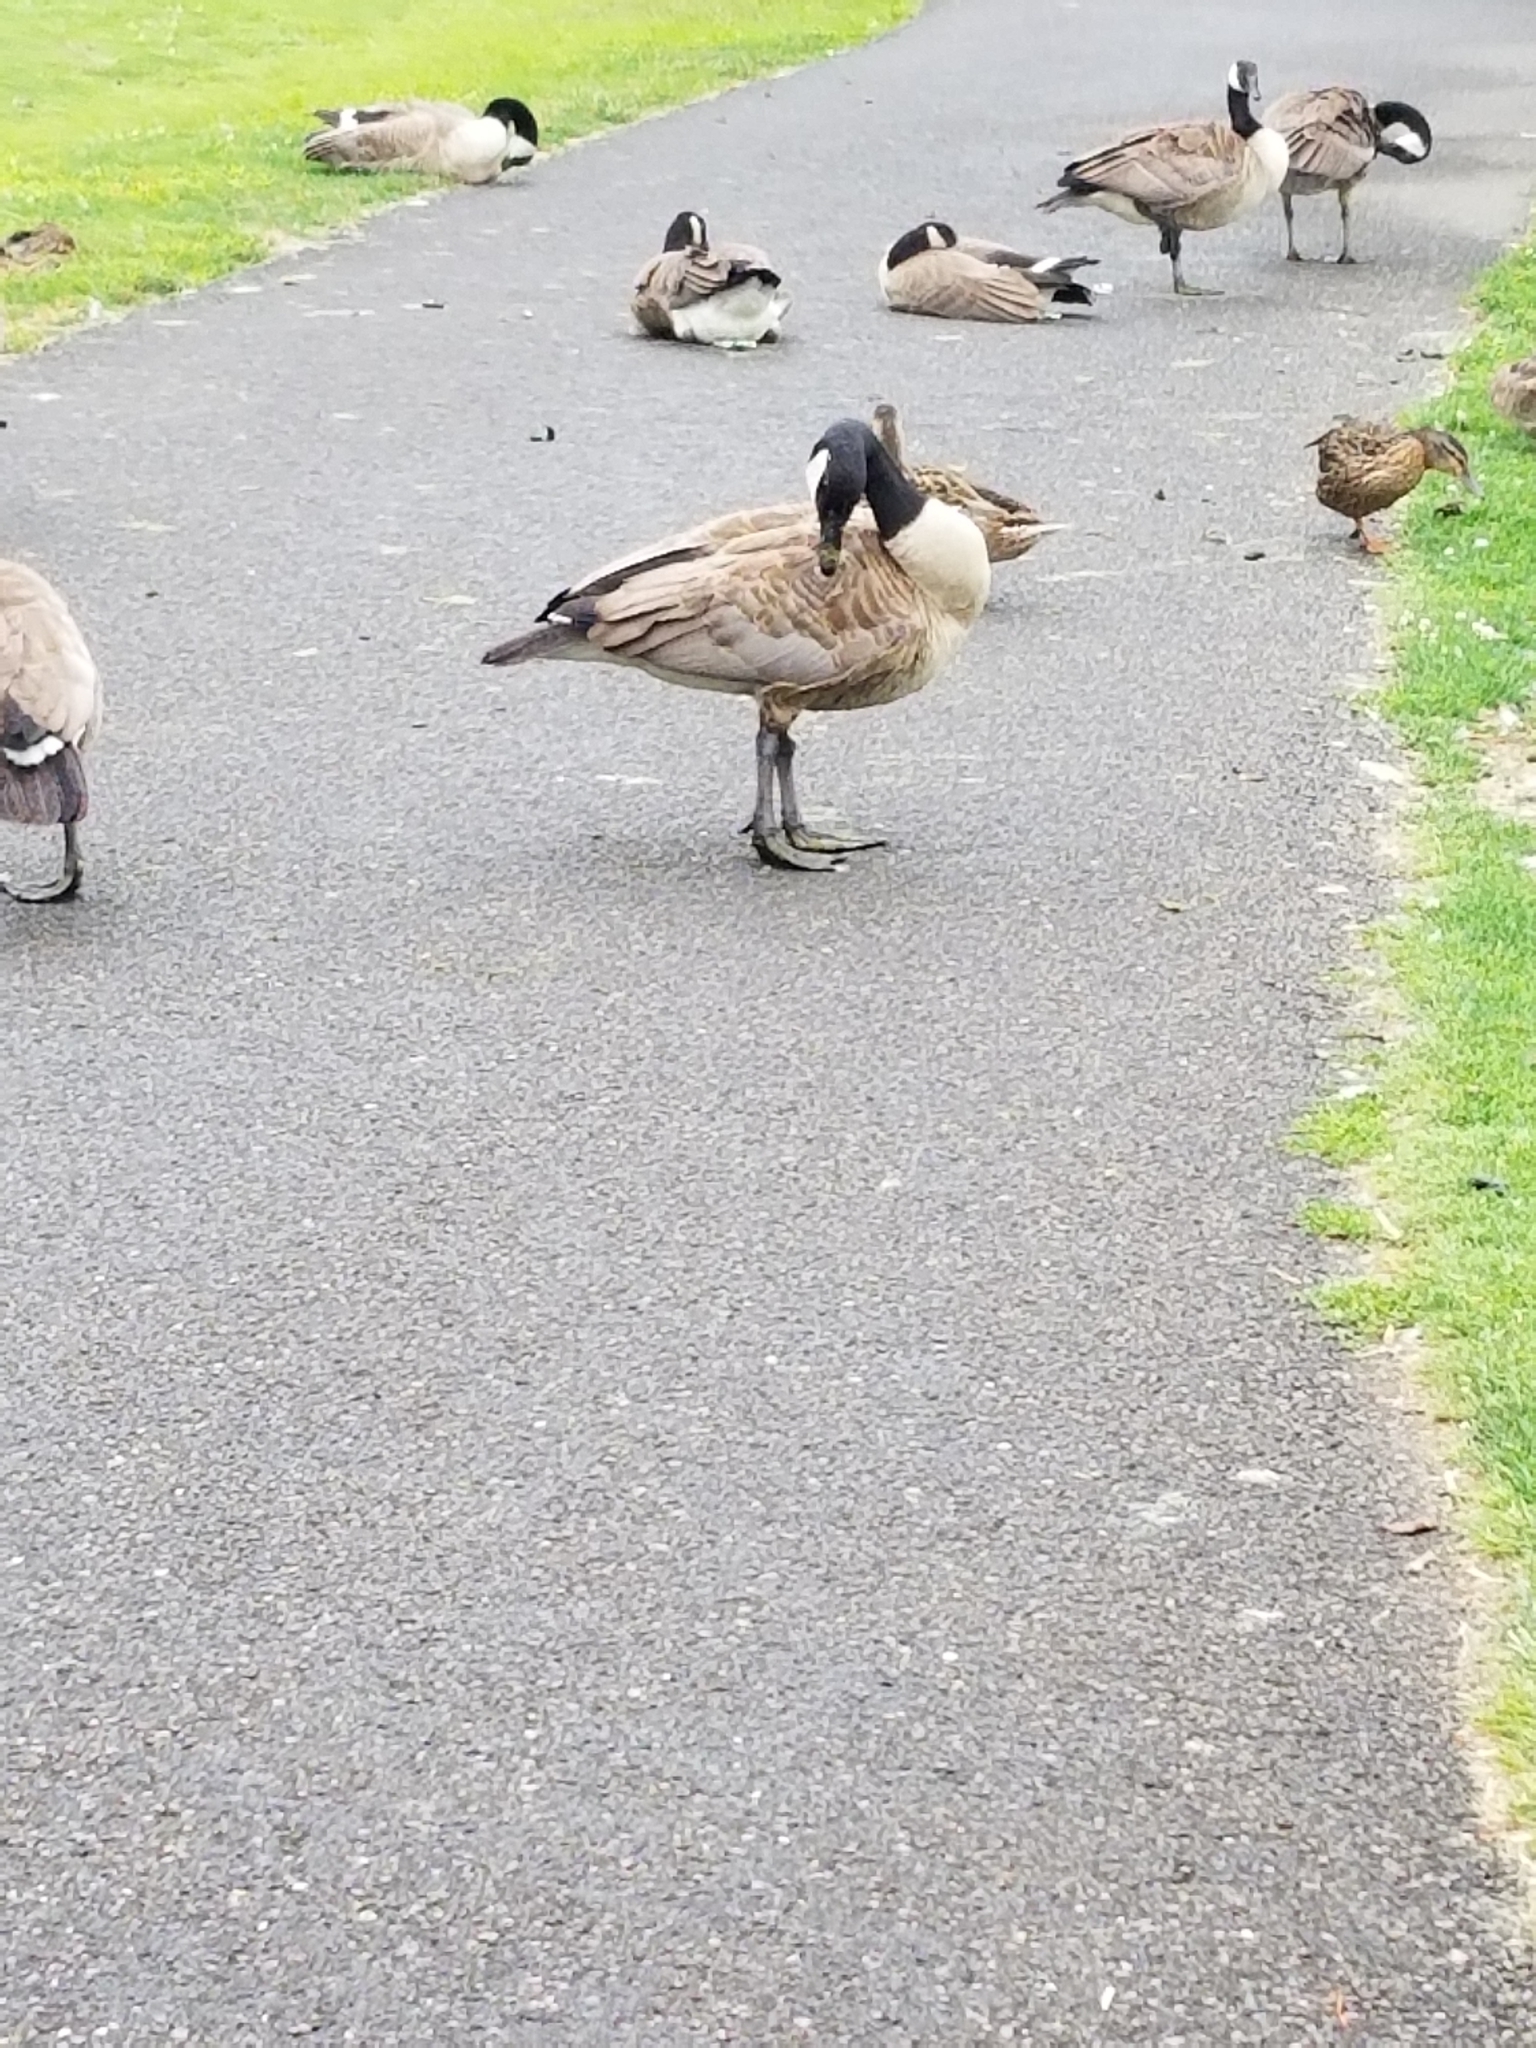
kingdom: Animalia
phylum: Chordata
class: Aves
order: Anseriformes
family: Anatidae
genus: Branta
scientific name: Branta canadensis
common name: Canada goose
